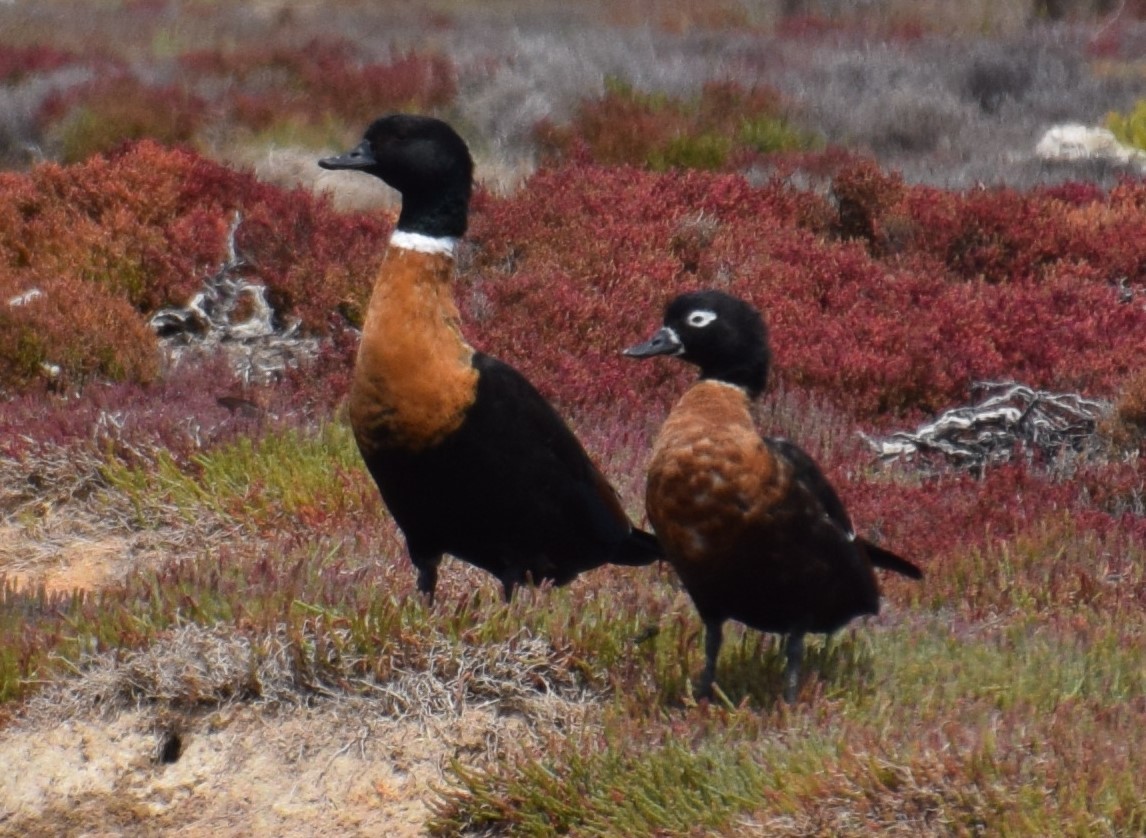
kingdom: Animalia
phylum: Chordata
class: Aves
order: Anseriformes
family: Anatidae
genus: Tadorna
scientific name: Tadorna tadornoides
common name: Australian shelduck
